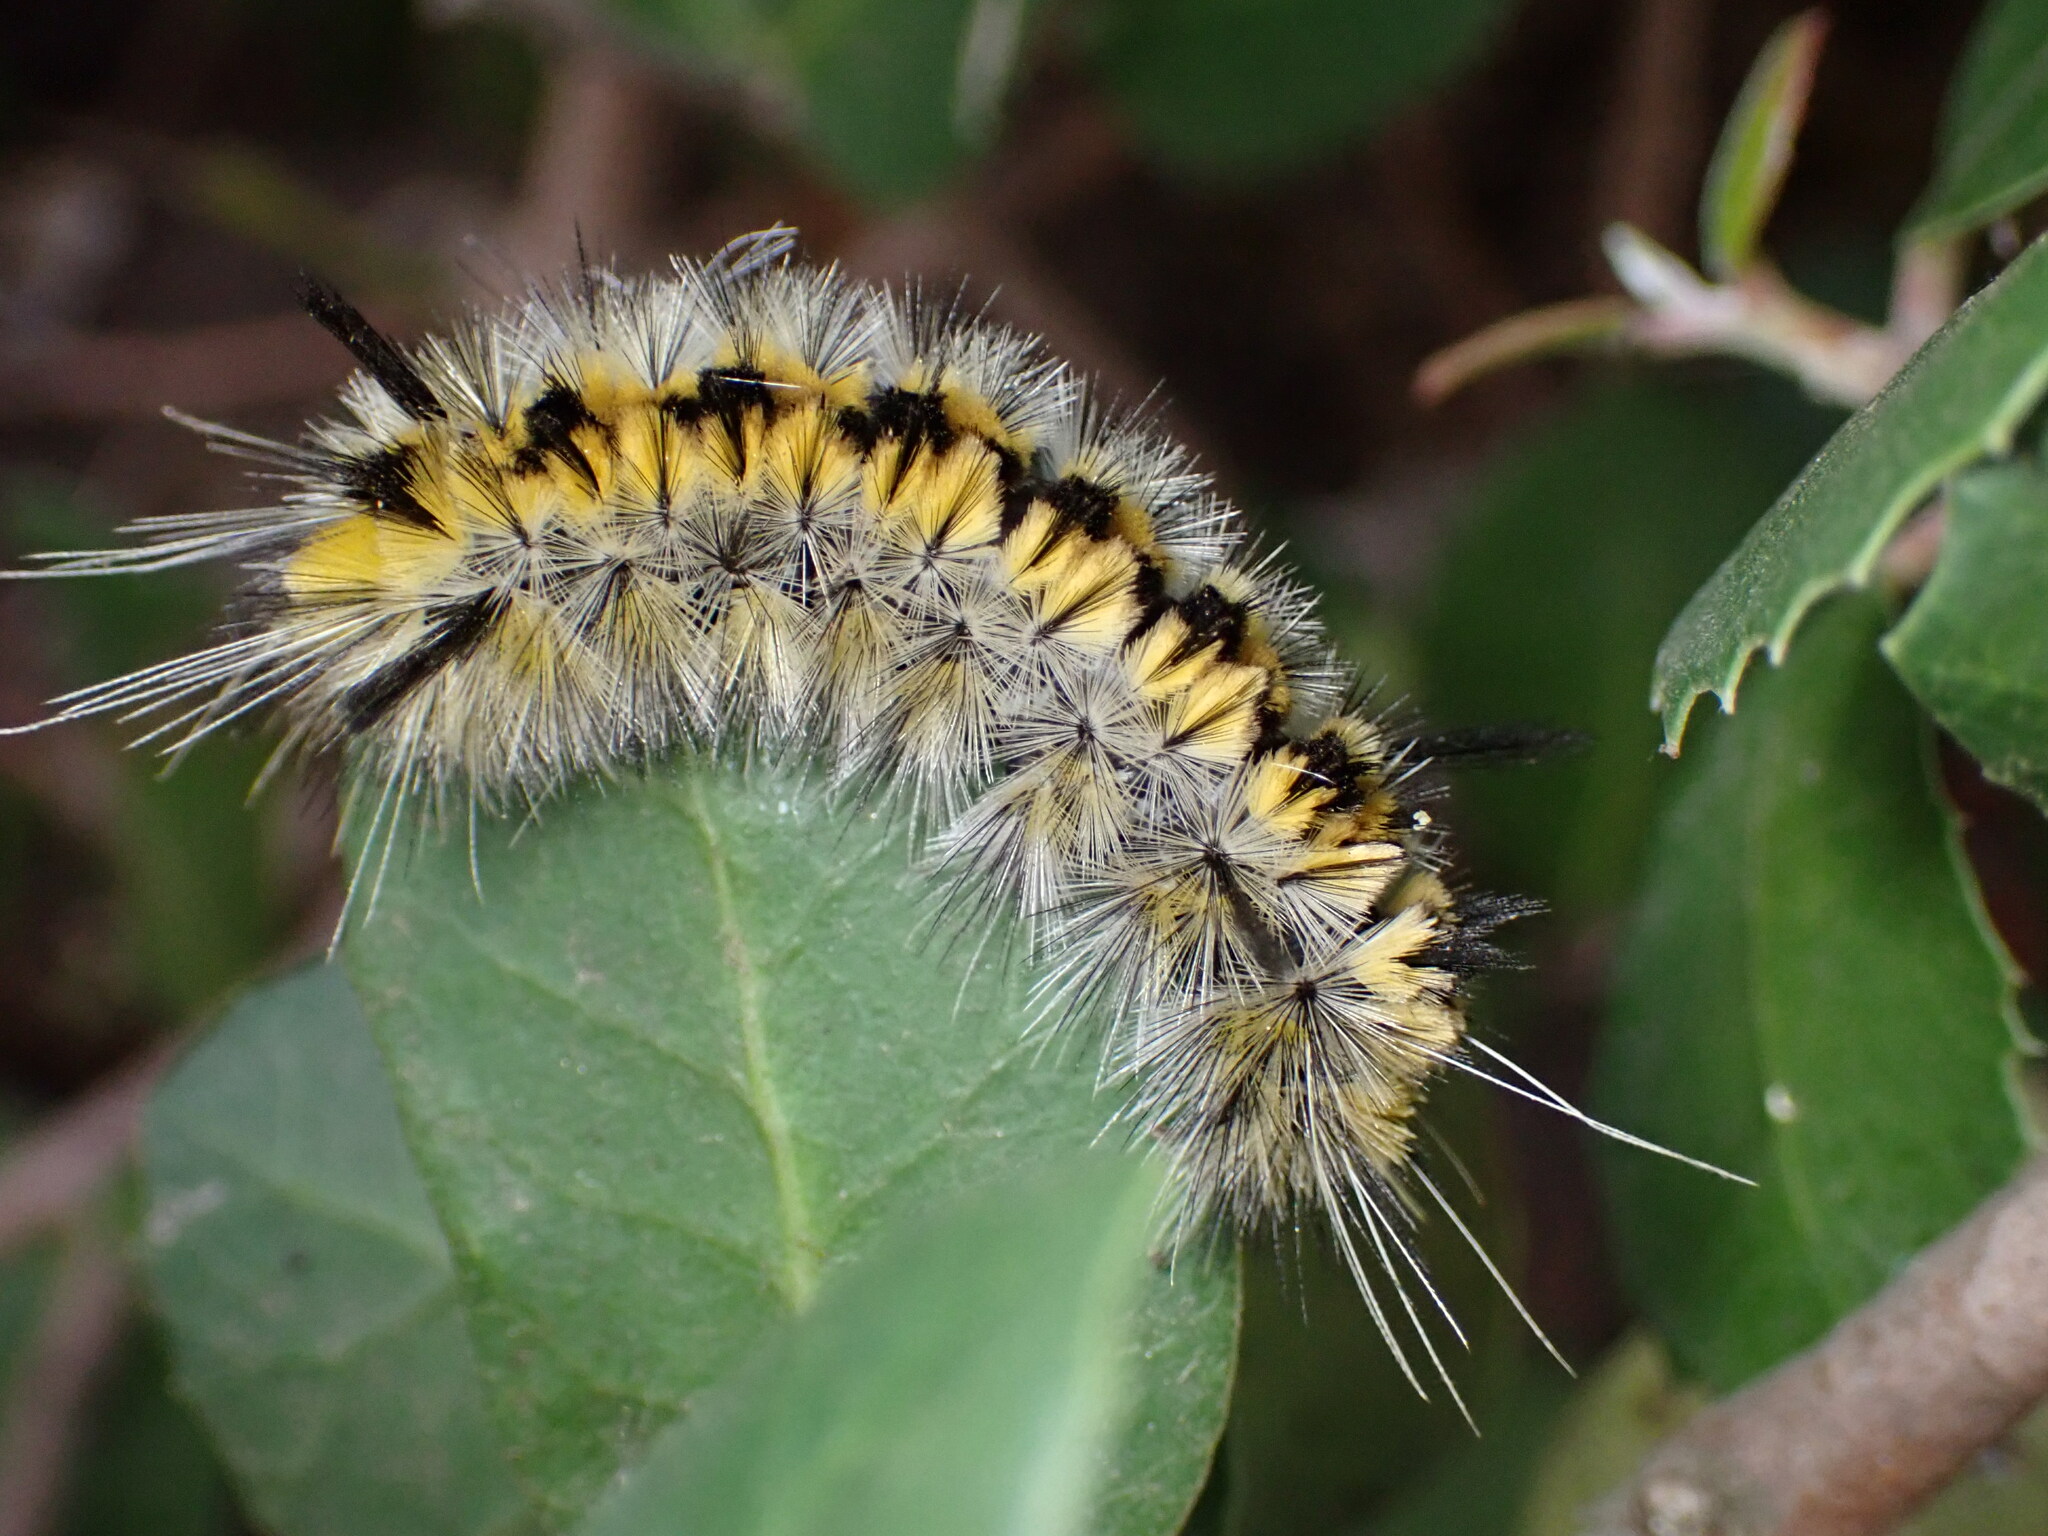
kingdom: Animalia
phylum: Arthropoda
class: Insecta
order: Lepidoptera
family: Erebidae
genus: Lophocampa
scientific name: Lophocampa indistincta
